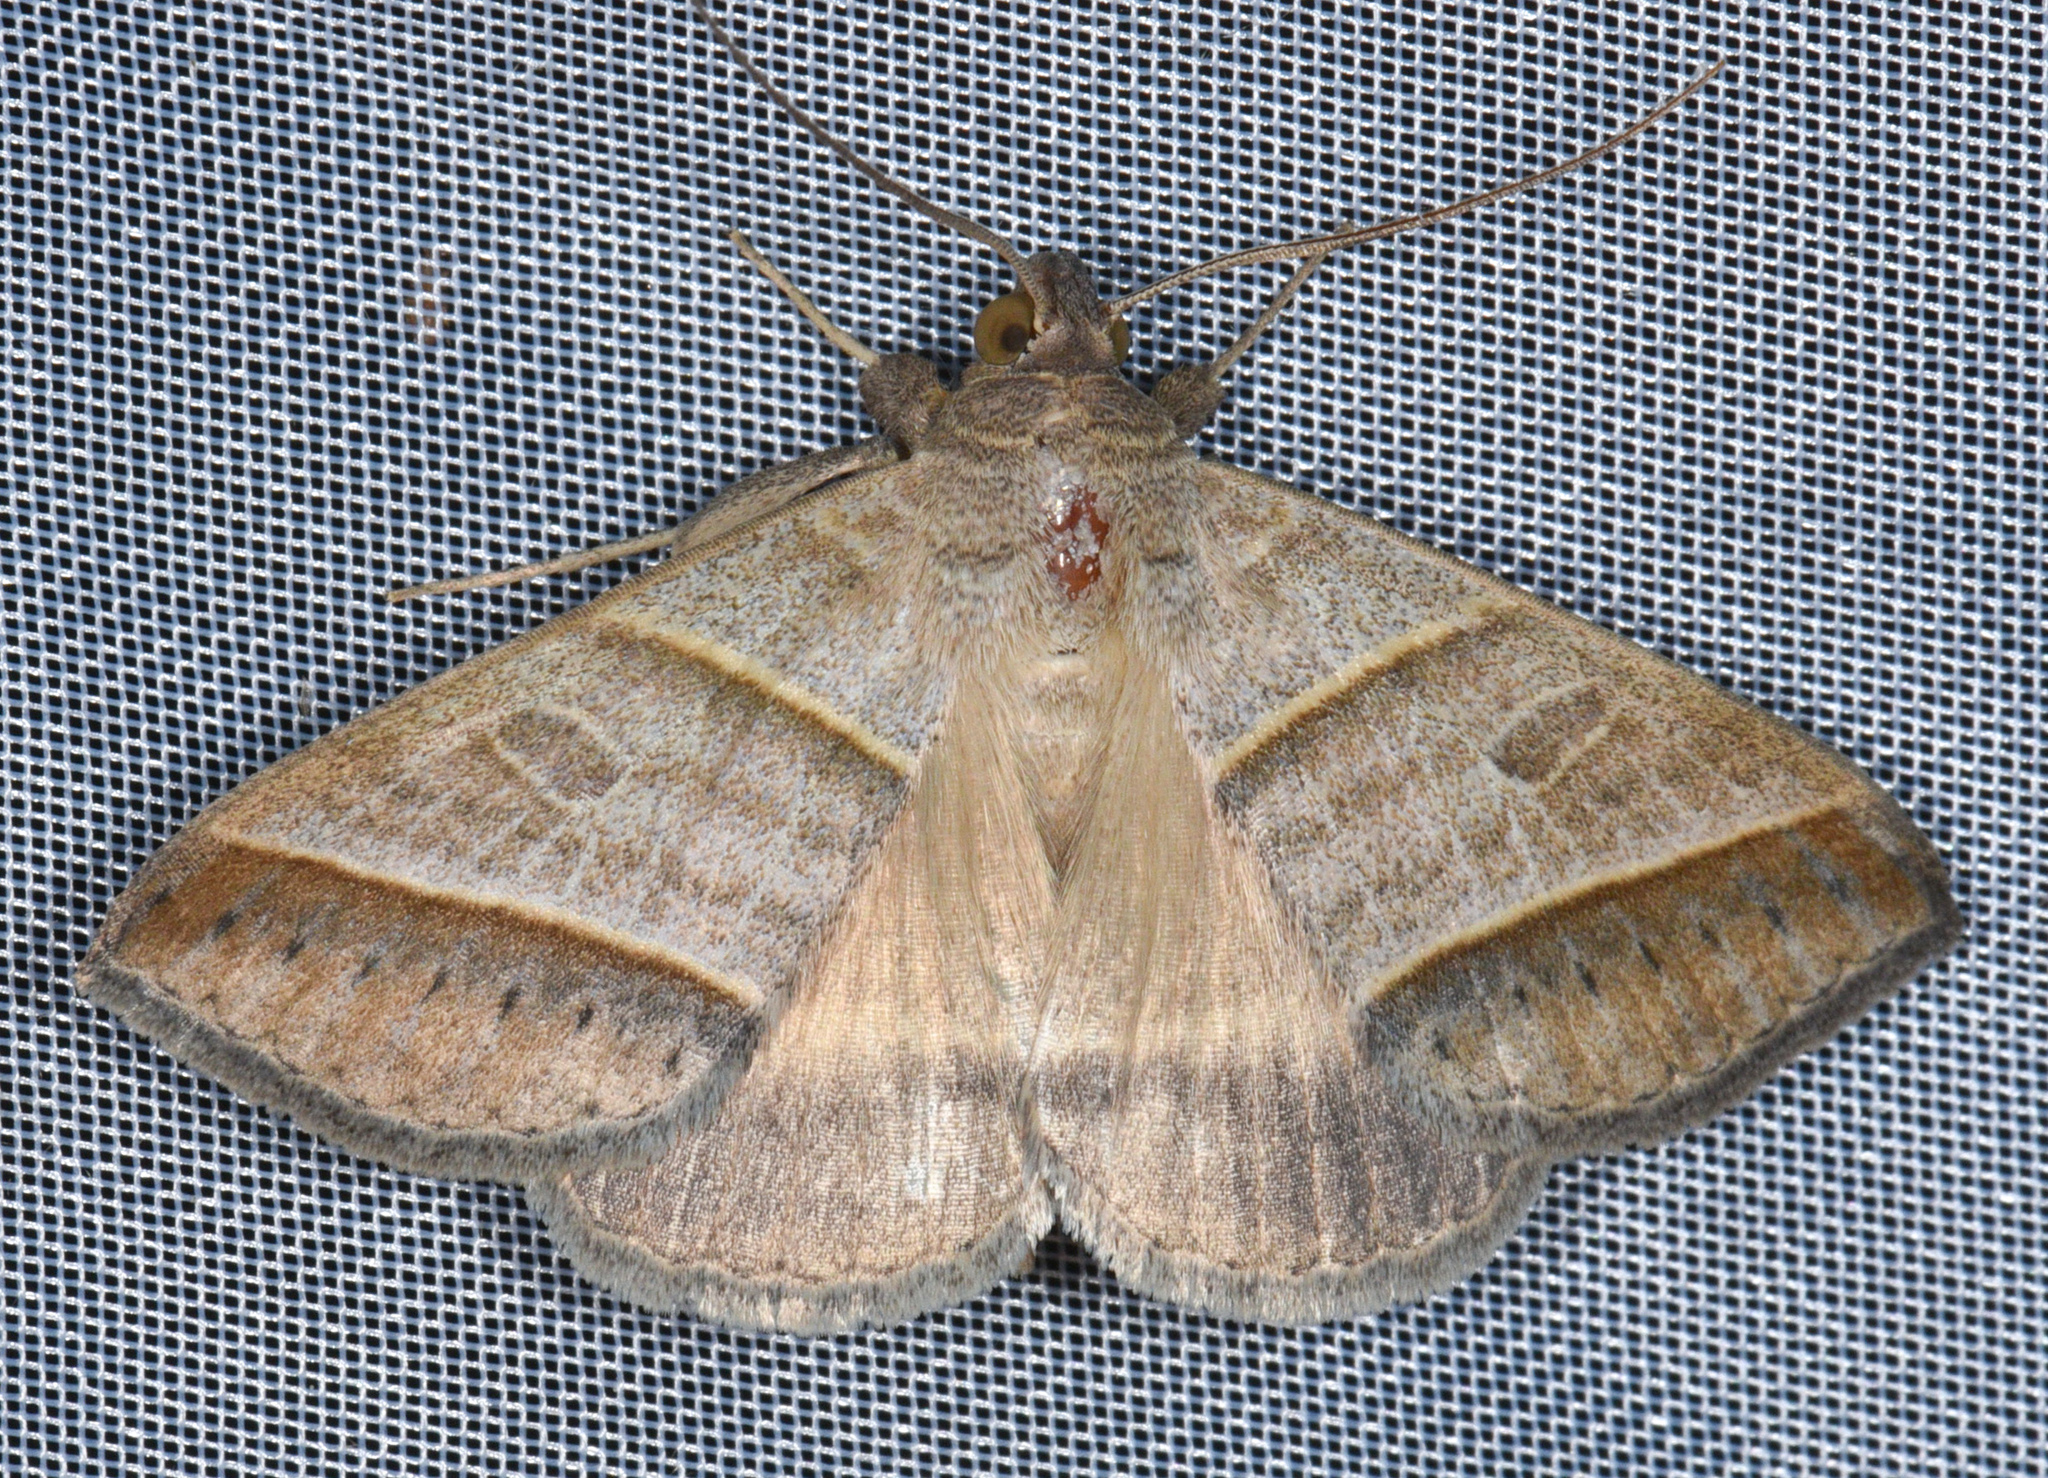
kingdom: Animalia
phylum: Arthropoda
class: Insecta
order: Lepidoptera
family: Erebidae
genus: Ptichodis
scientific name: Ptichodis immunis
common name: Cutworm moth
